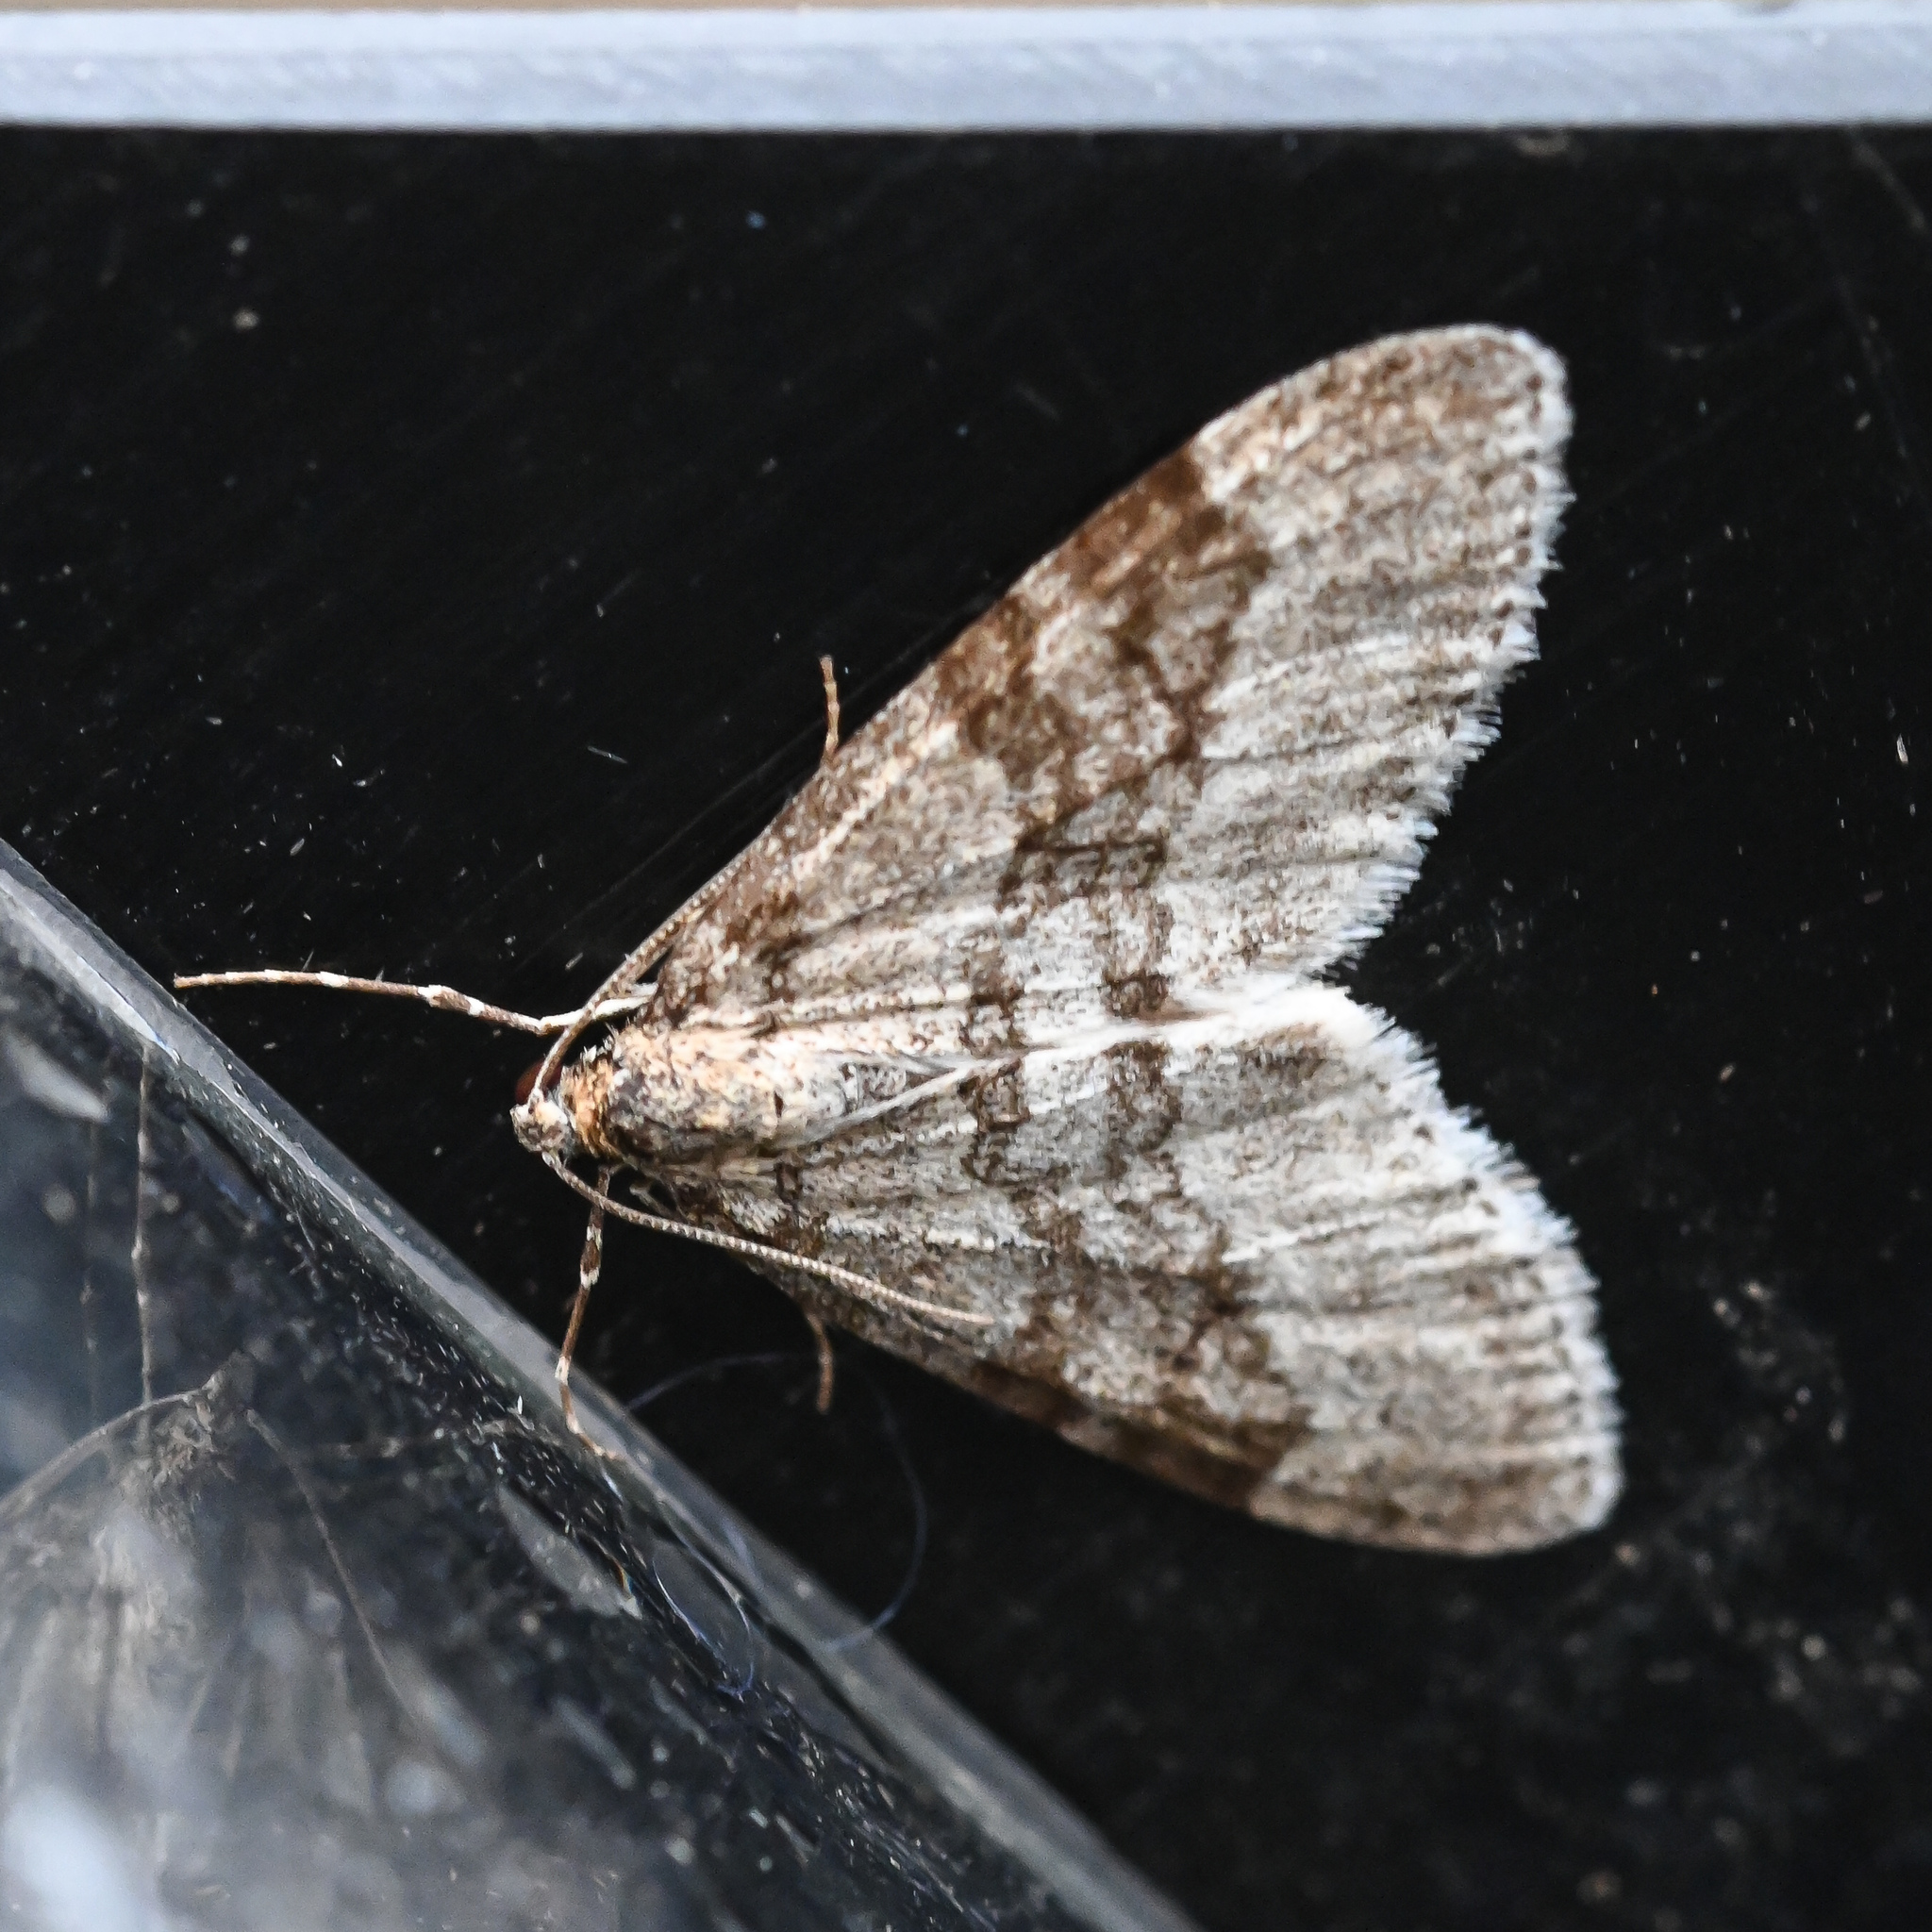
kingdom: Animalia
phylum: Arthropoda
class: Insecta
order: Lepidoptera
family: Geometridae
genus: Trichopteryx
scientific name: Trichopteryx carpinata
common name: Early tooth-striped
